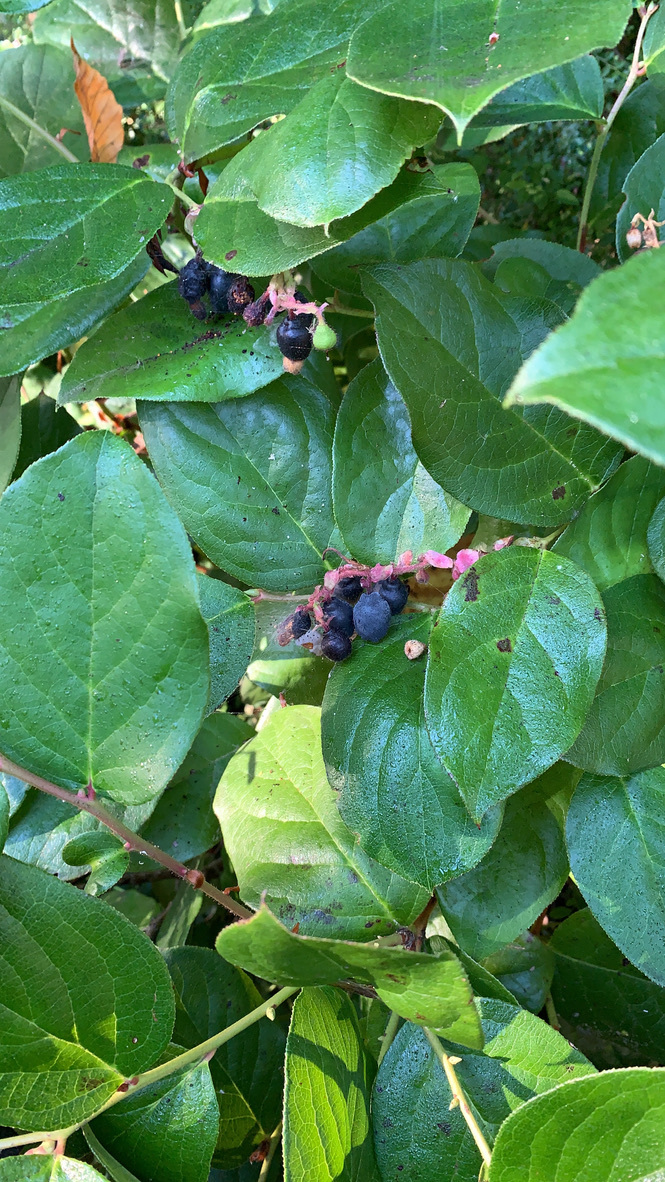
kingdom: Plantae
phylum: Tracheophyta
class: Magnoliopsida
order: Ericales
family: Ericaceae
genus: Gaultheria
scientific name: Gaultheria shallon
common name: Shallon
